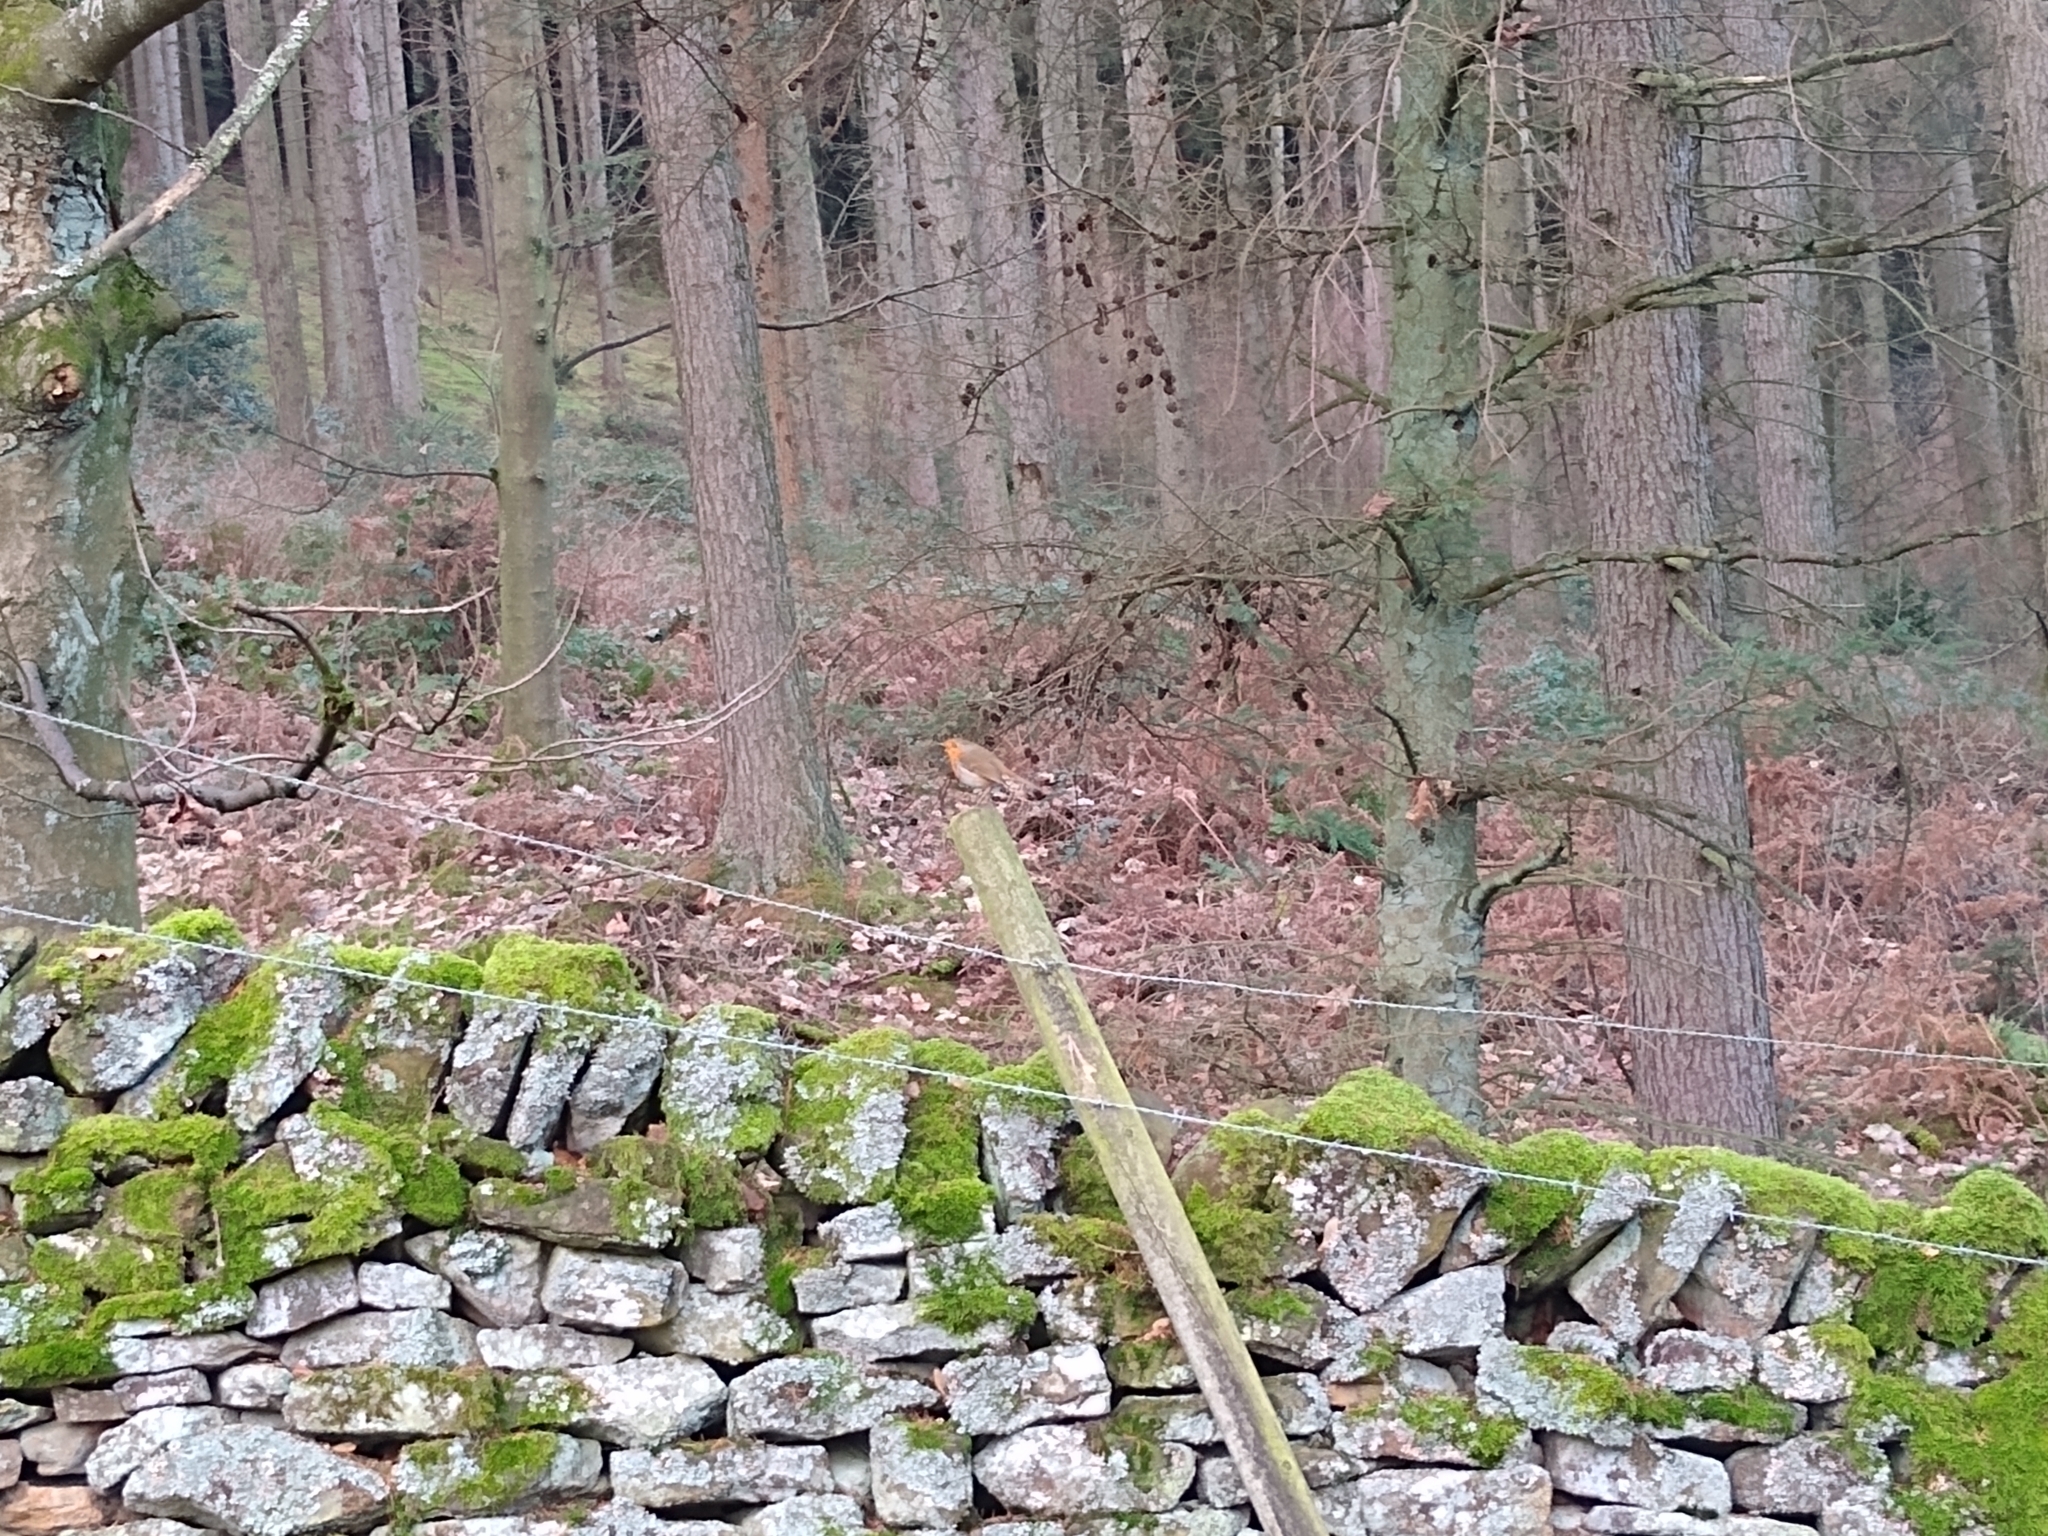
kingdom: Animalia
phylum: Chordata
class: Aves
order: Passeriformes
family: Muscicapidae
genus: Erithacus
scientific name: Erithacus rubecula
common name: European robin
